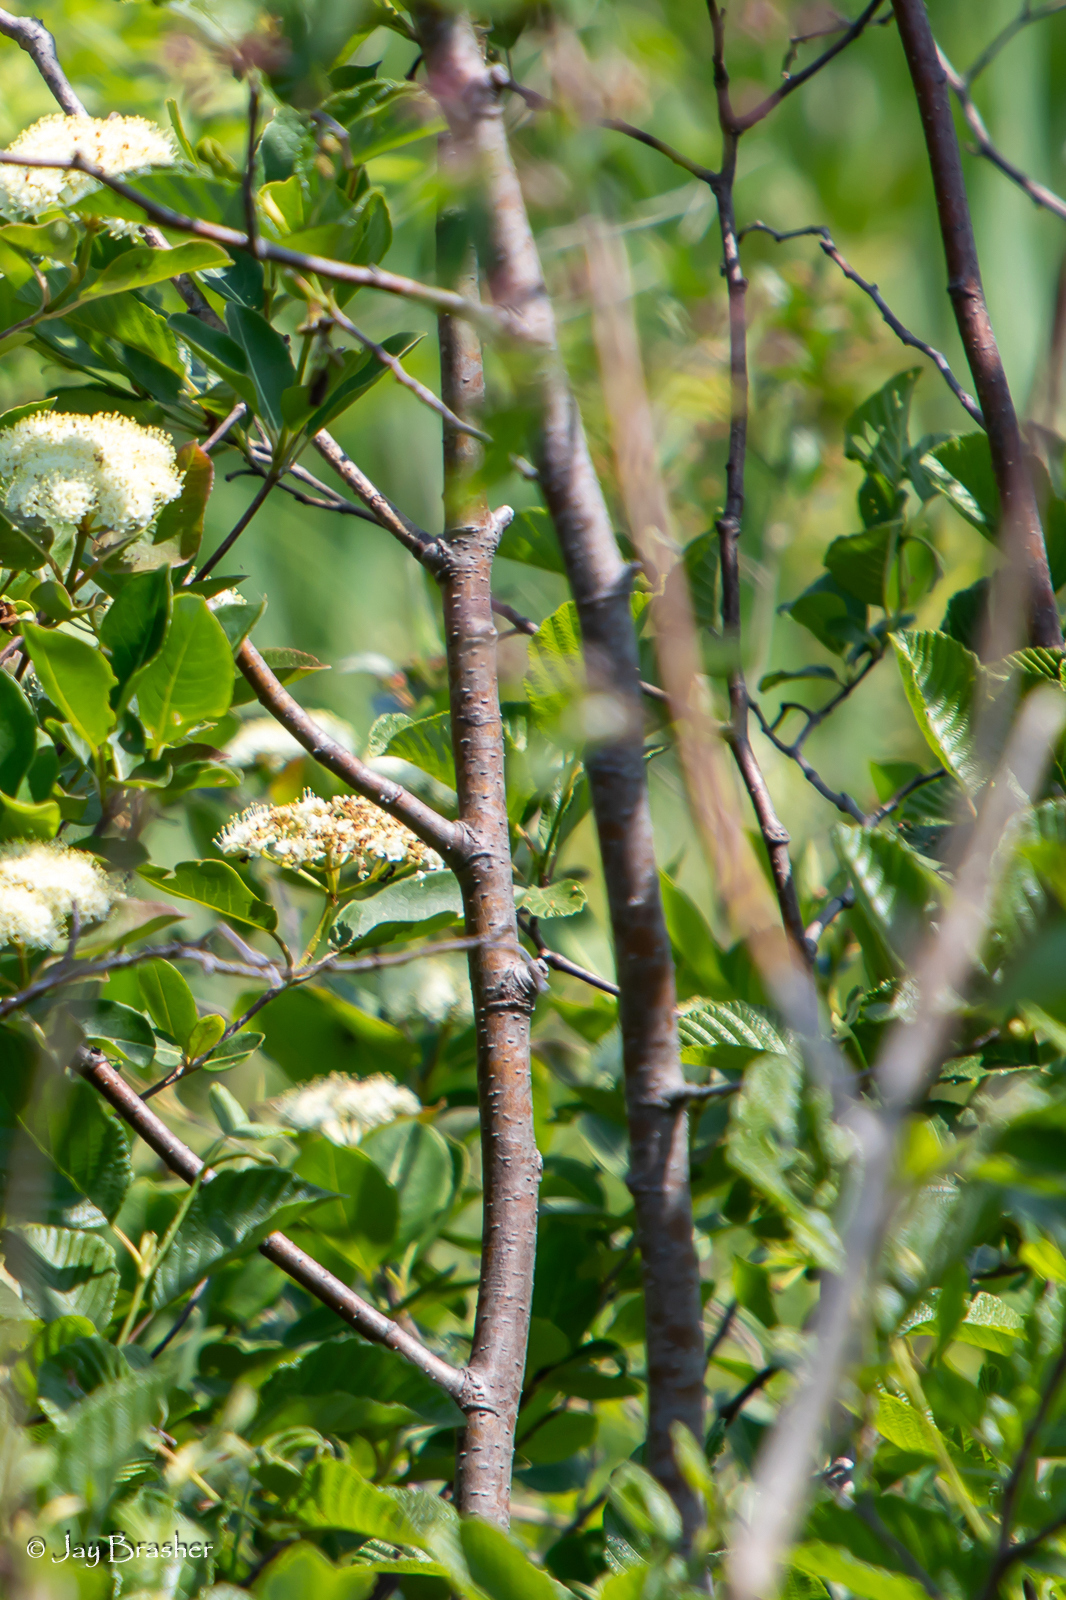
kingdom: Plantae
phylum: Tracheophyta
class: Magnoliopsida
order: Dipsacales
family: Viburnaceae
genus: Viburnum
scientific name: Viburnum cassinoides
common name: Swamp haw
